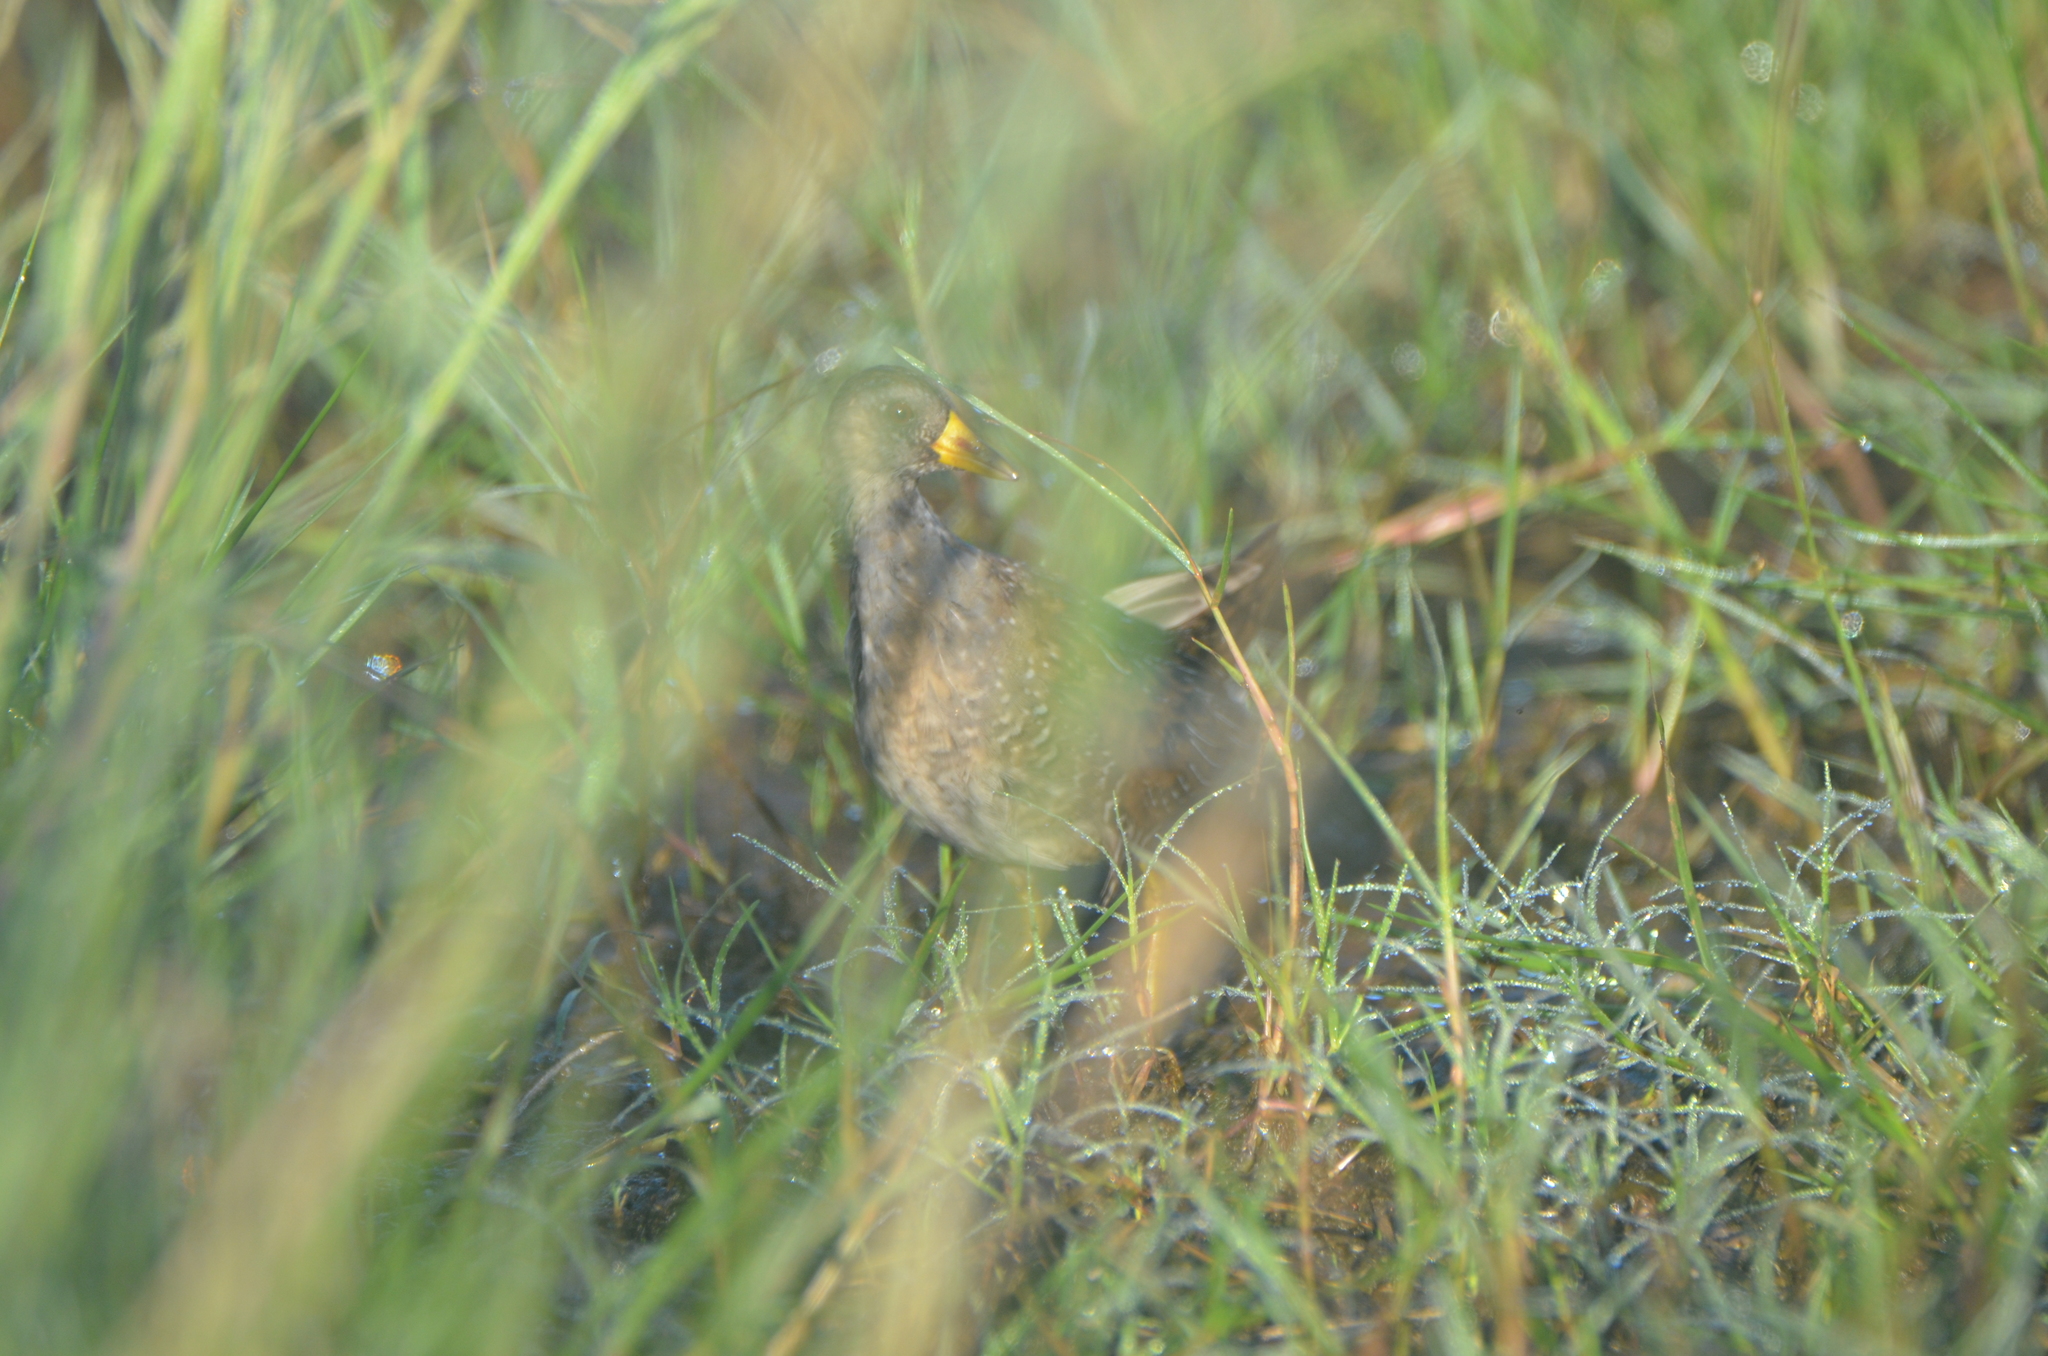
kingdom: Animalia
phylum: Chordata
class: Aves
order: Gruiformes
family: Rallidae
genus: Porzana
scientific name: Porzana carolina
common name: Sora
